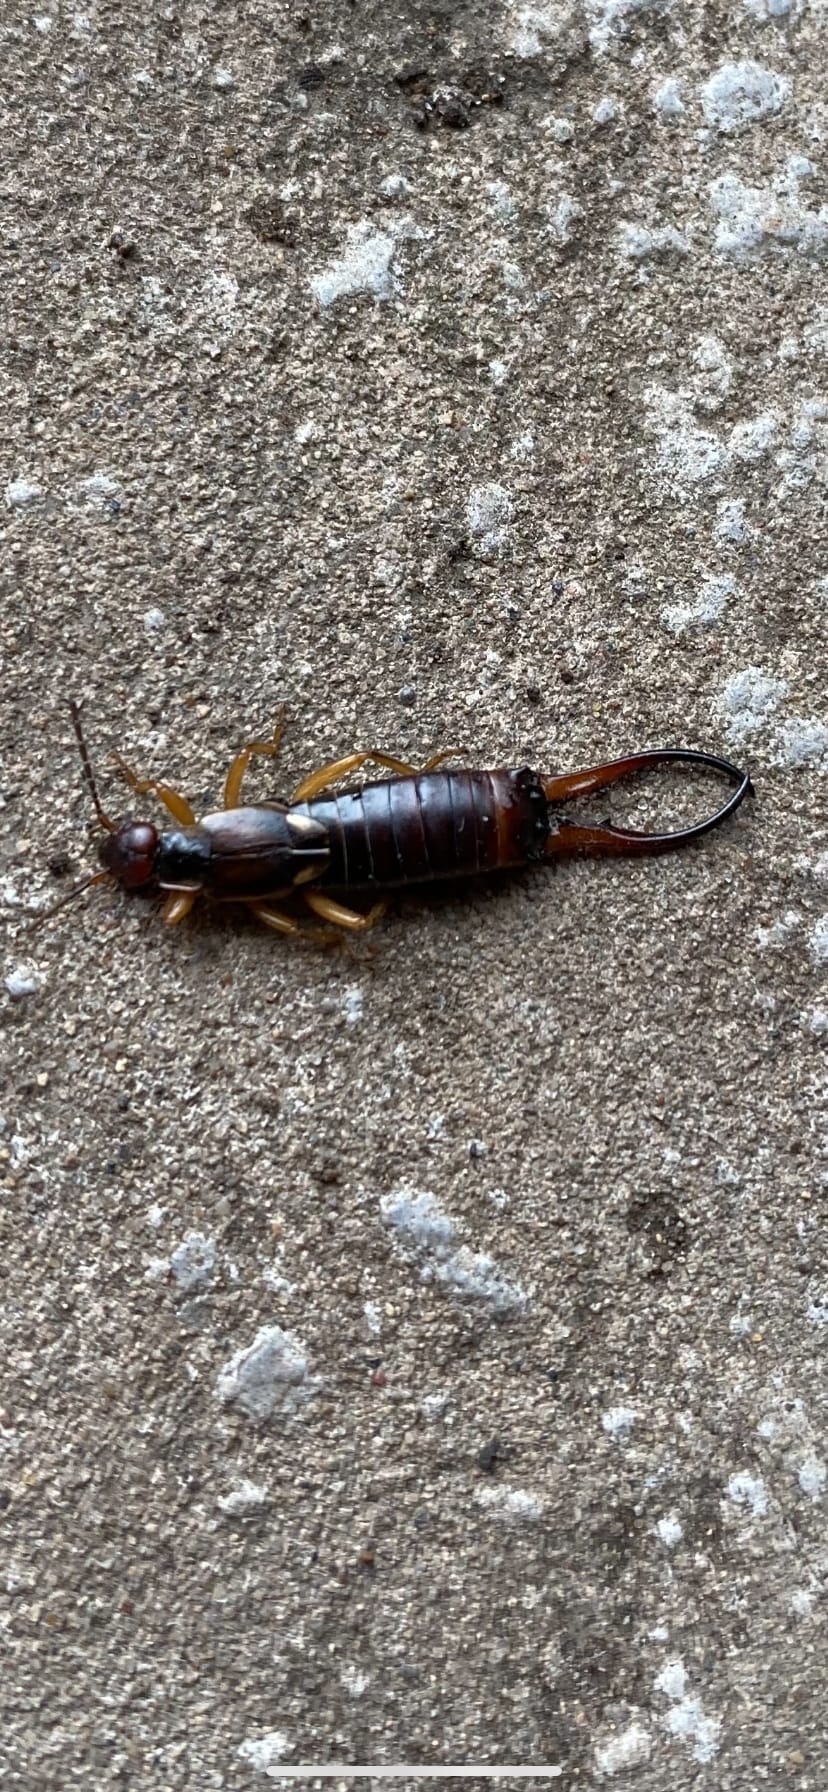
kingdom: Animalia
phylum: Arthropoda
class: Insecta
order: Dermaptera
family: Forficulidae
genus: Forficula
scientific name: Forficula
